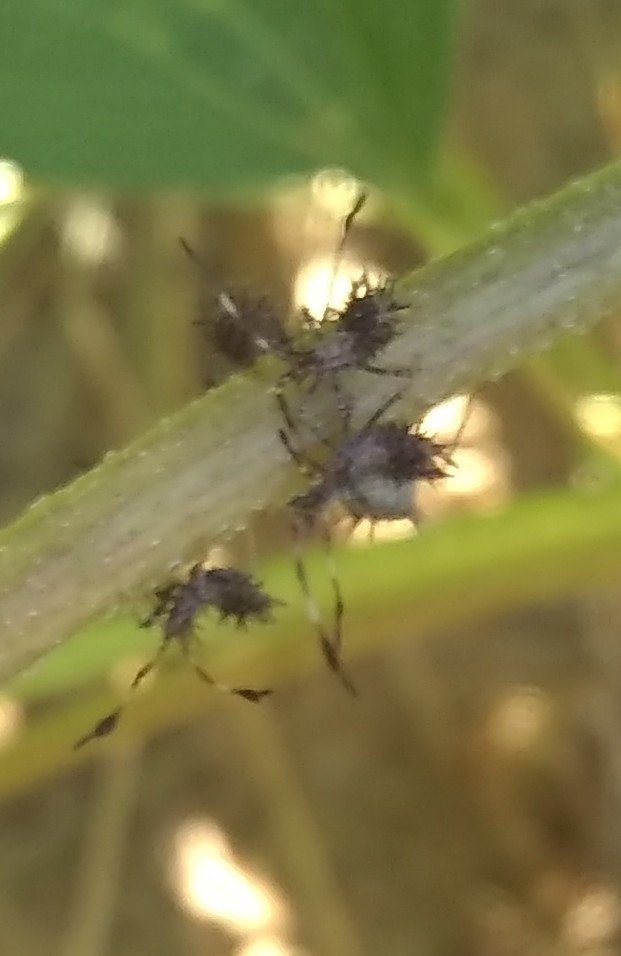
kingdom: Animalia
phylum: Arthropoda
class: Insecta
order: Hemiptera
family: Coreidae
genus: Euthochtha
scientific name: Euthochtha galeator
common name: Helmeted squash bug
